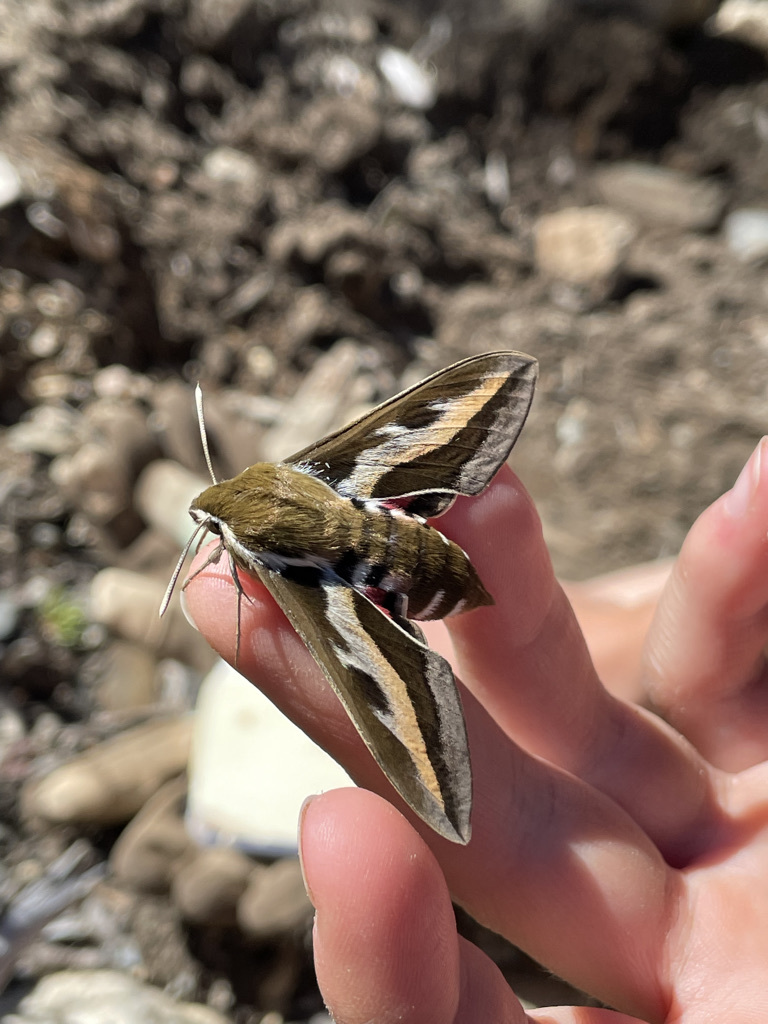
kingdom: Animalia
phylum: Arthropoda
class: Insecta
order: Lepidoptera
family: Sphingidae
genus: Hyles
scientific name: Hyles gallii
